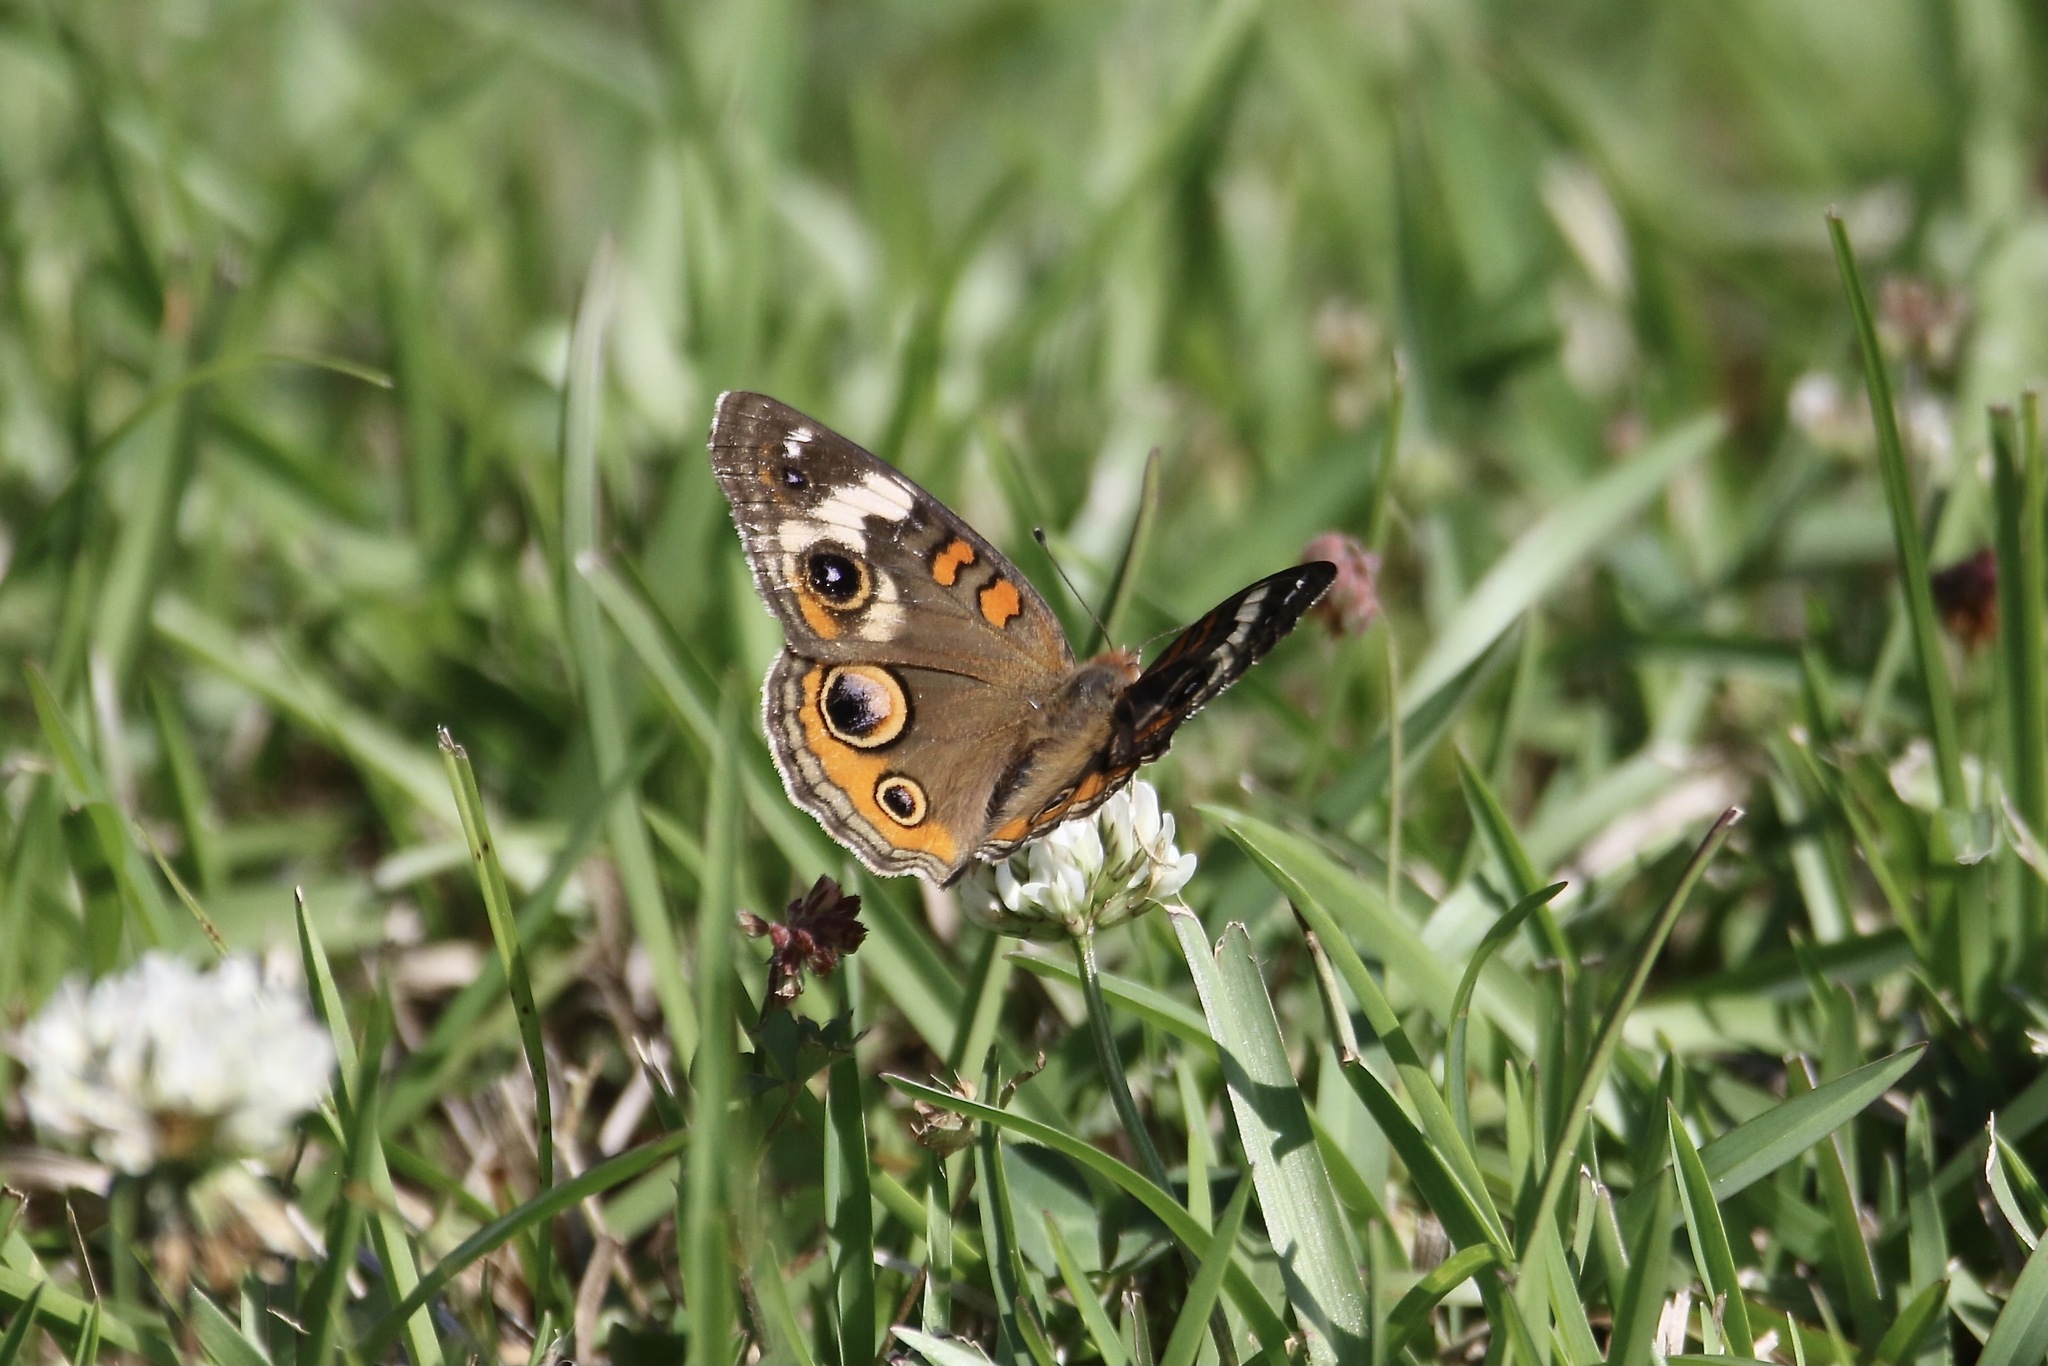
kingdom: Animalia
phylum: Arthropoda
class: Insecta
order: Lepidoptera
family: Nymphalidae
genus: Junonia
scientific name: Junonia coenia
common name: Common buckeye
